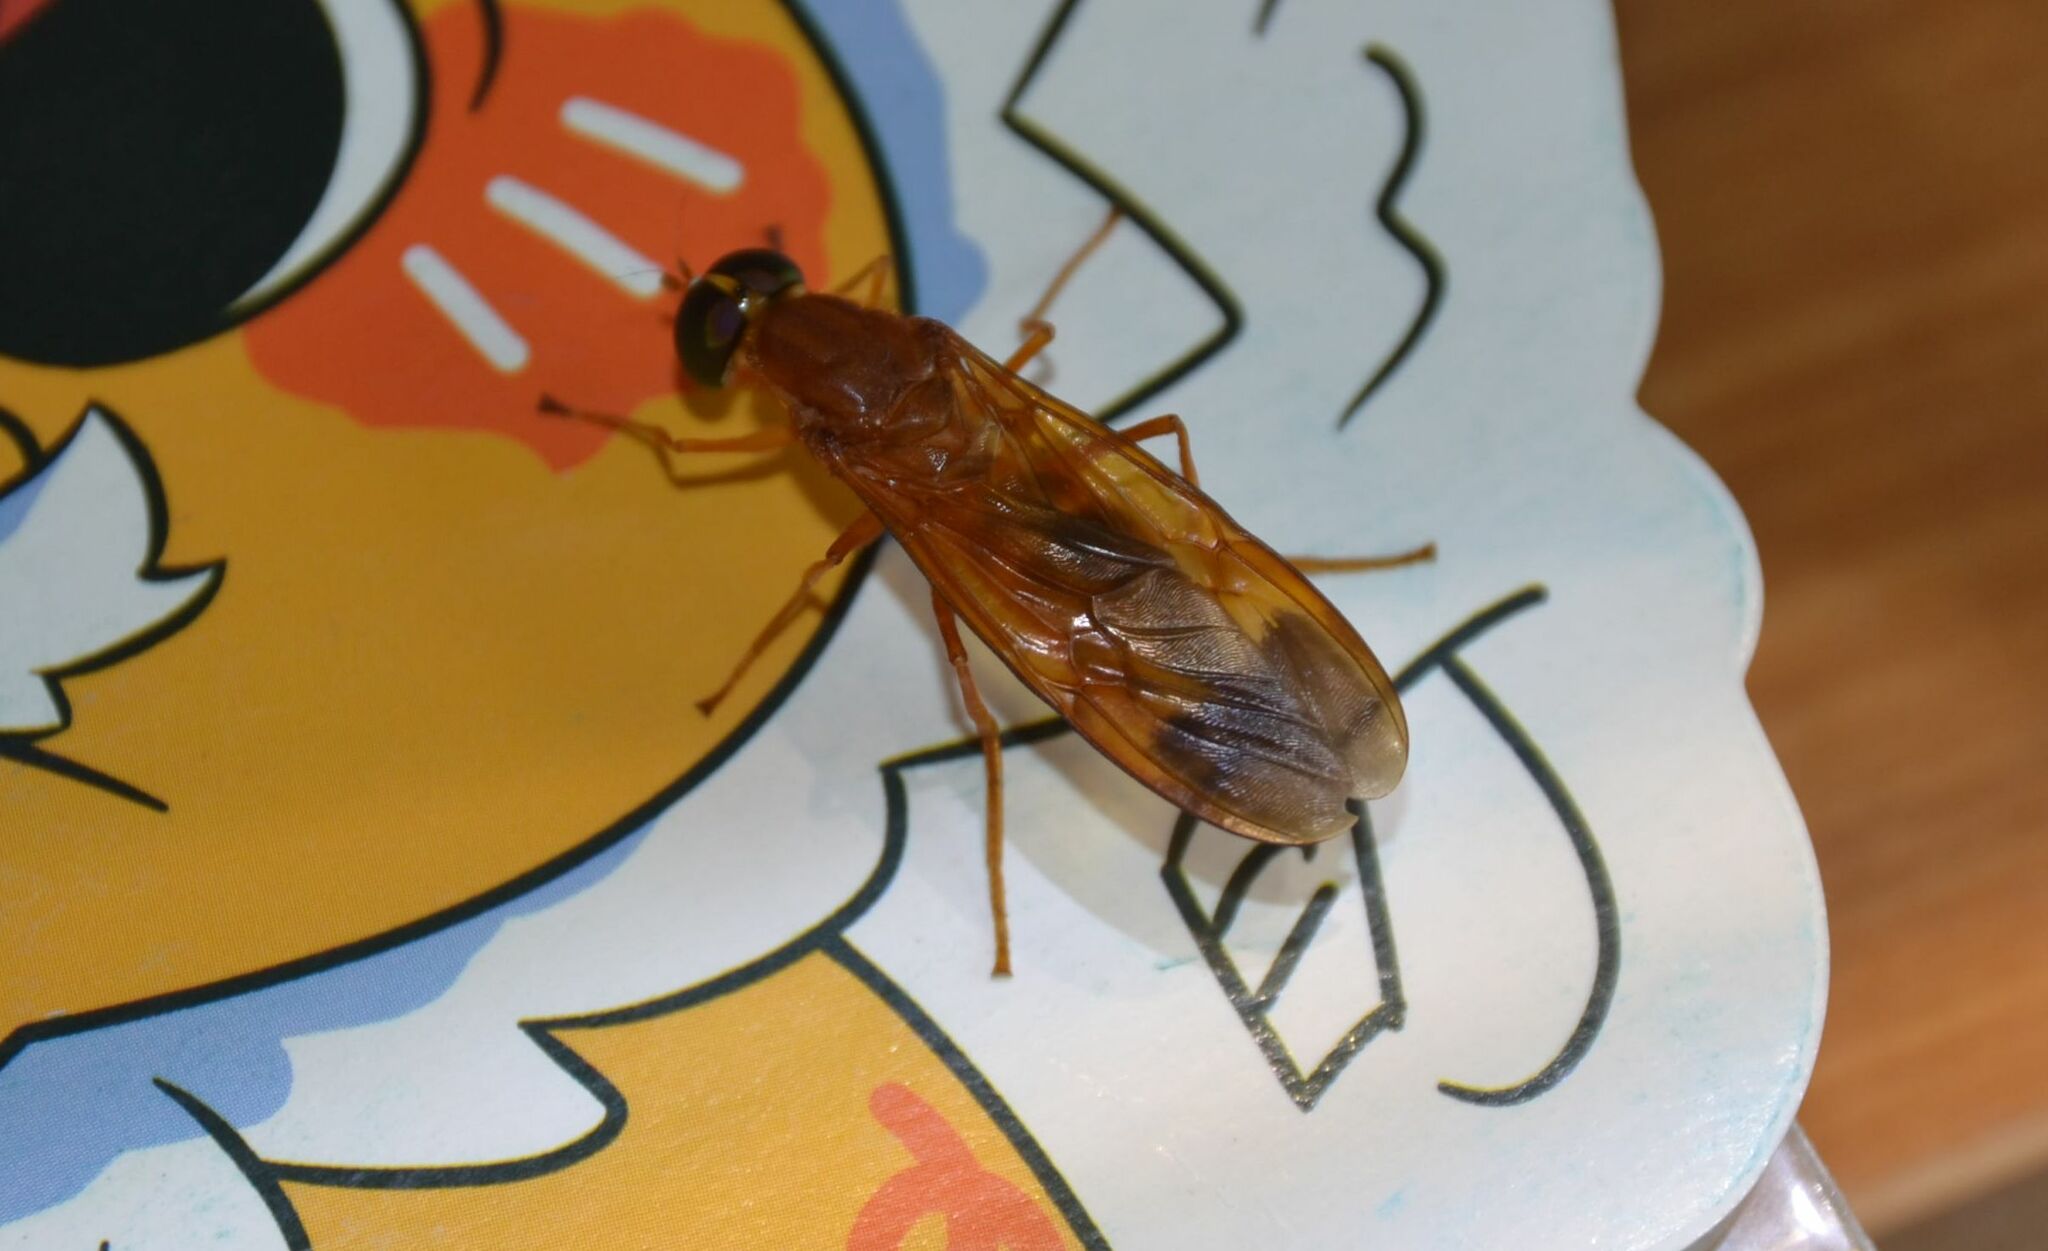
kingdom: Animalia
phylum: Arthropoda
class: Insecta
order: Diptera
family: Stratiomyidae
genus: Ptecticus
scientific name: Ptecticus aurifer
